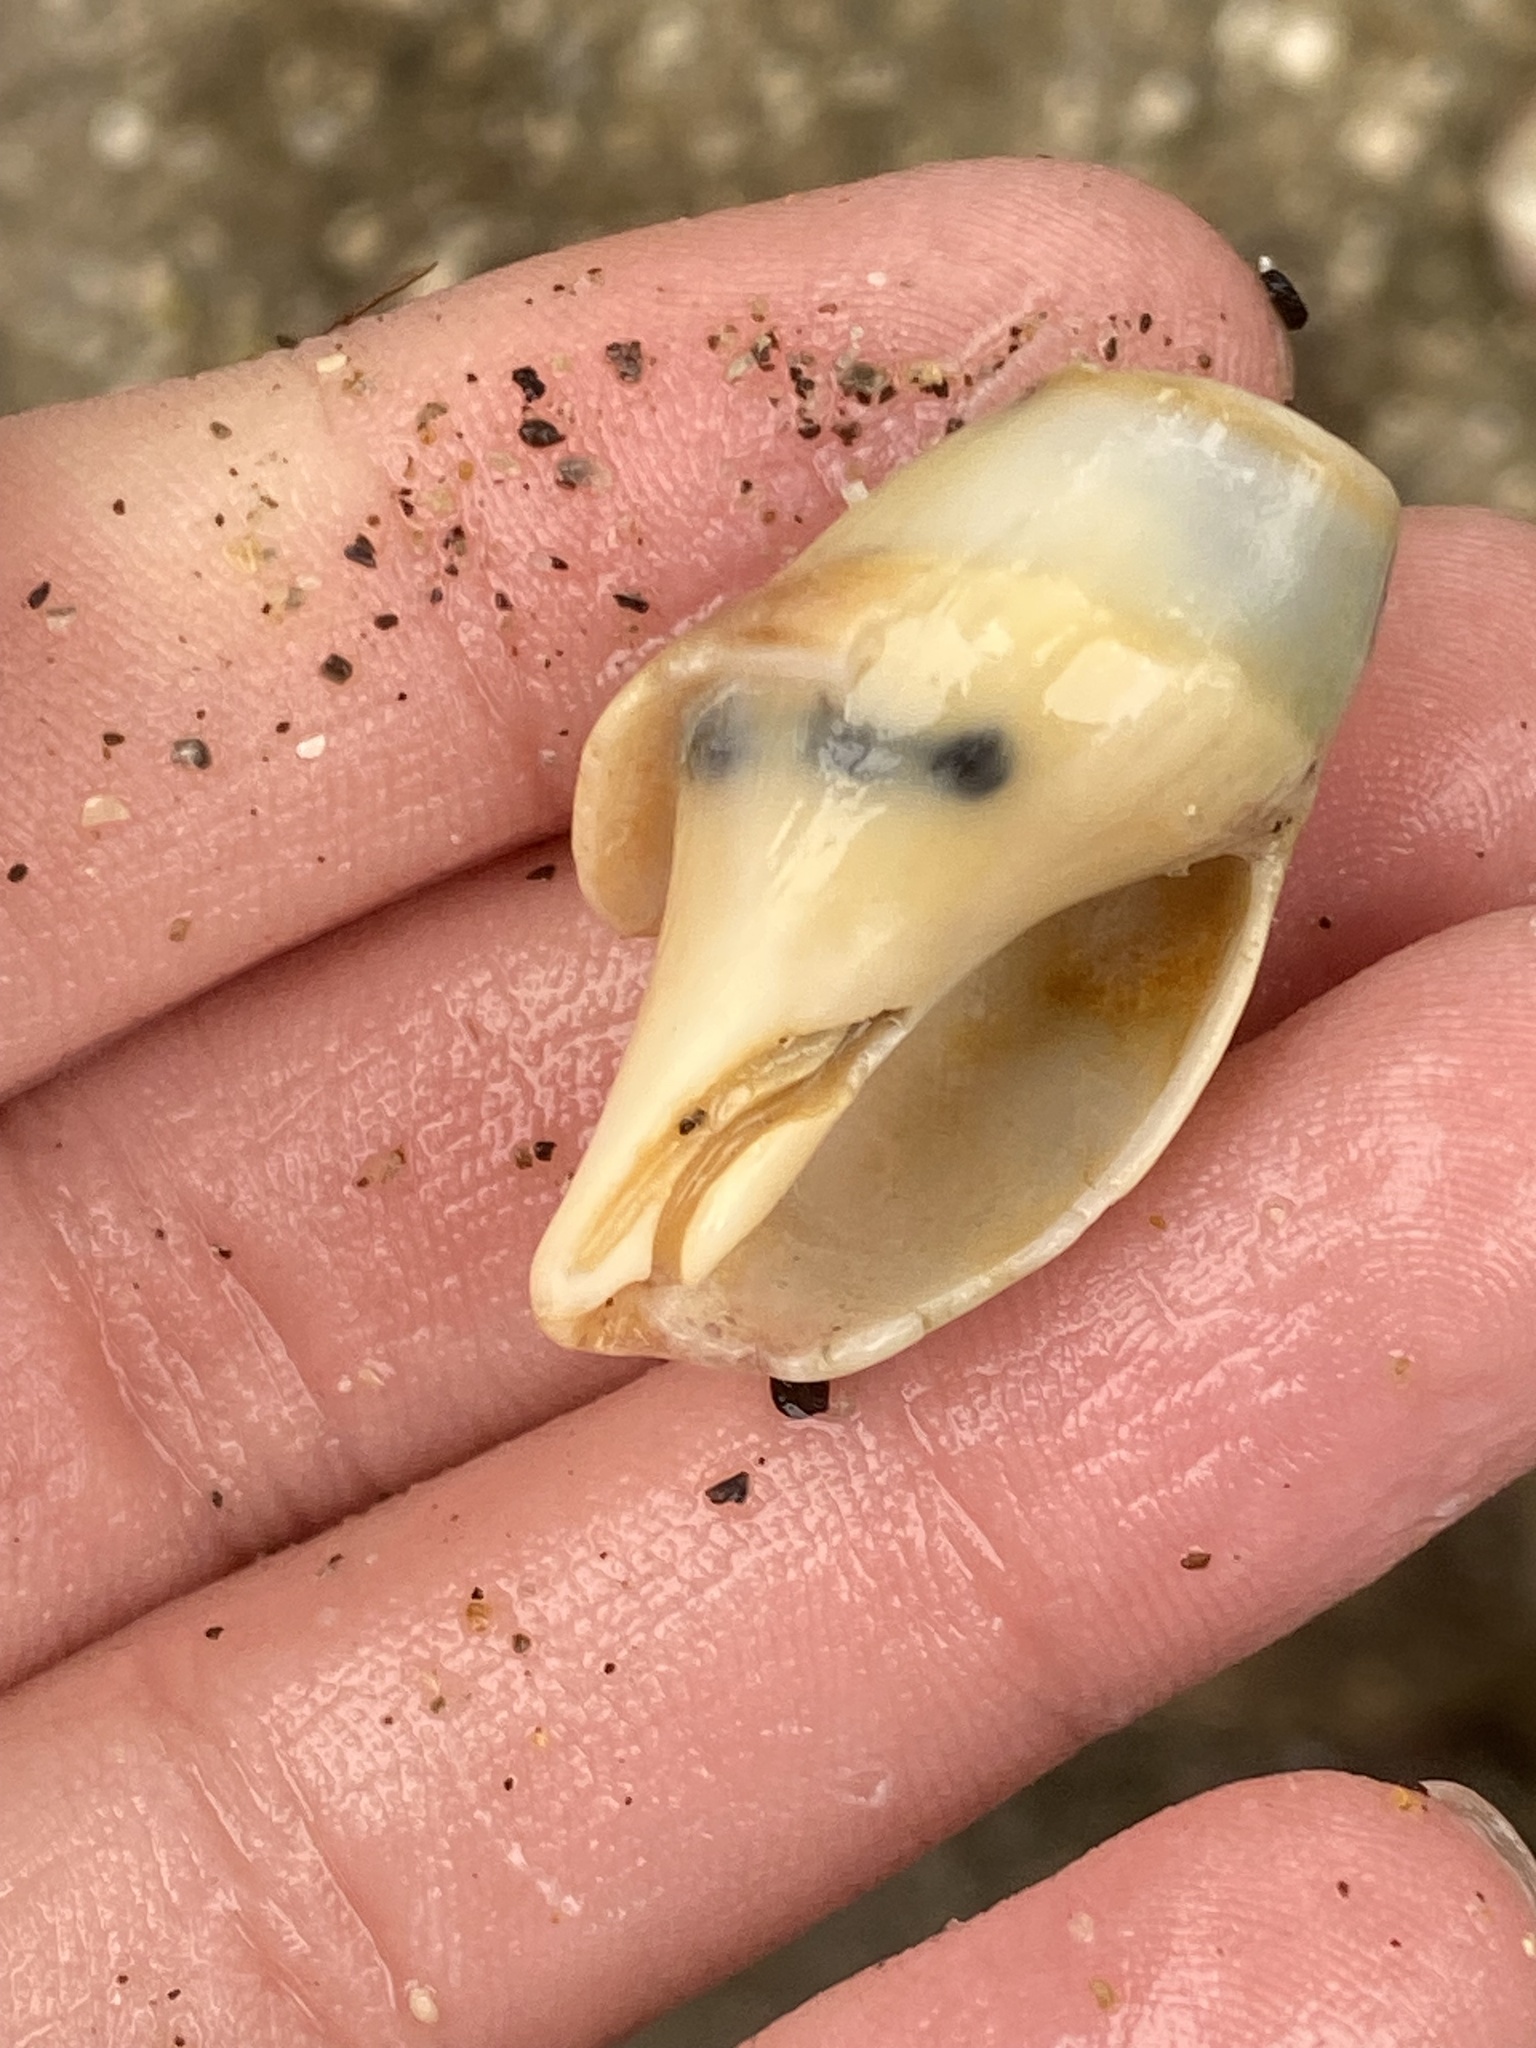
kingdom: Animalia
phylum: Mollusca
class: Gastropoda
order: Neogastropoda
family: Pseudomelatomidae
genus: Megasurcula
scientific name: Megasurcula carpenteriana
